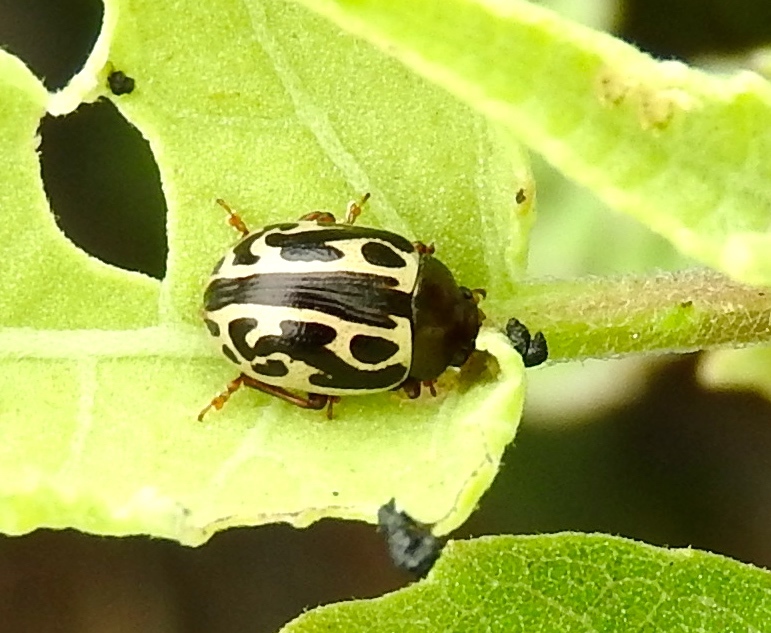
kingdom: Animalia
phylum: Arthropoda
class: Insecta
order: Coleoptera
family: Chrysomelidae
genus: Calligrapha
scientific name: Calligrapha
